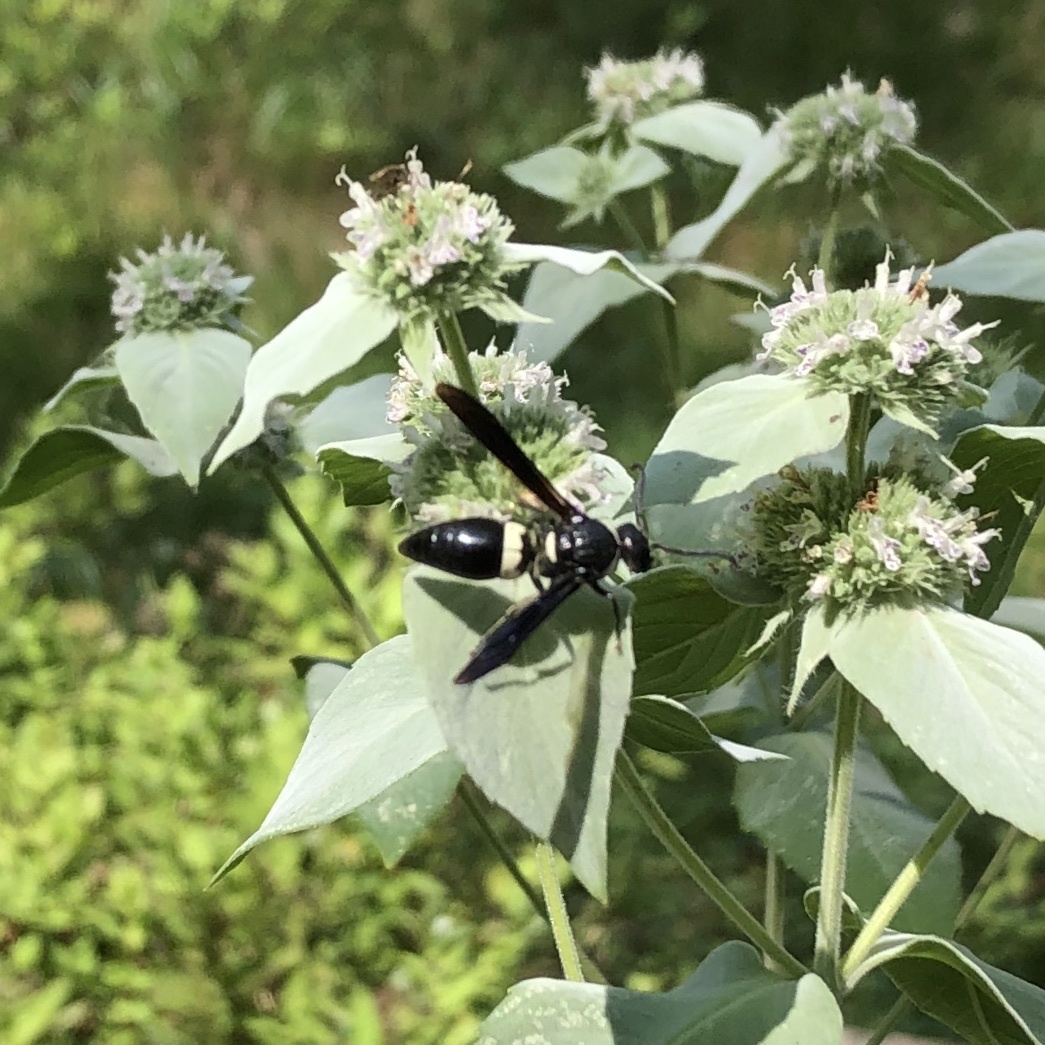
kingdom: Animalia
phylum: Arthropoda
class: Insecta
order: Hymenoptera
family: Eumenidae
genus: Monobia
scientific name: Monobia quadridens
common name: Four-toothed mason wasp
